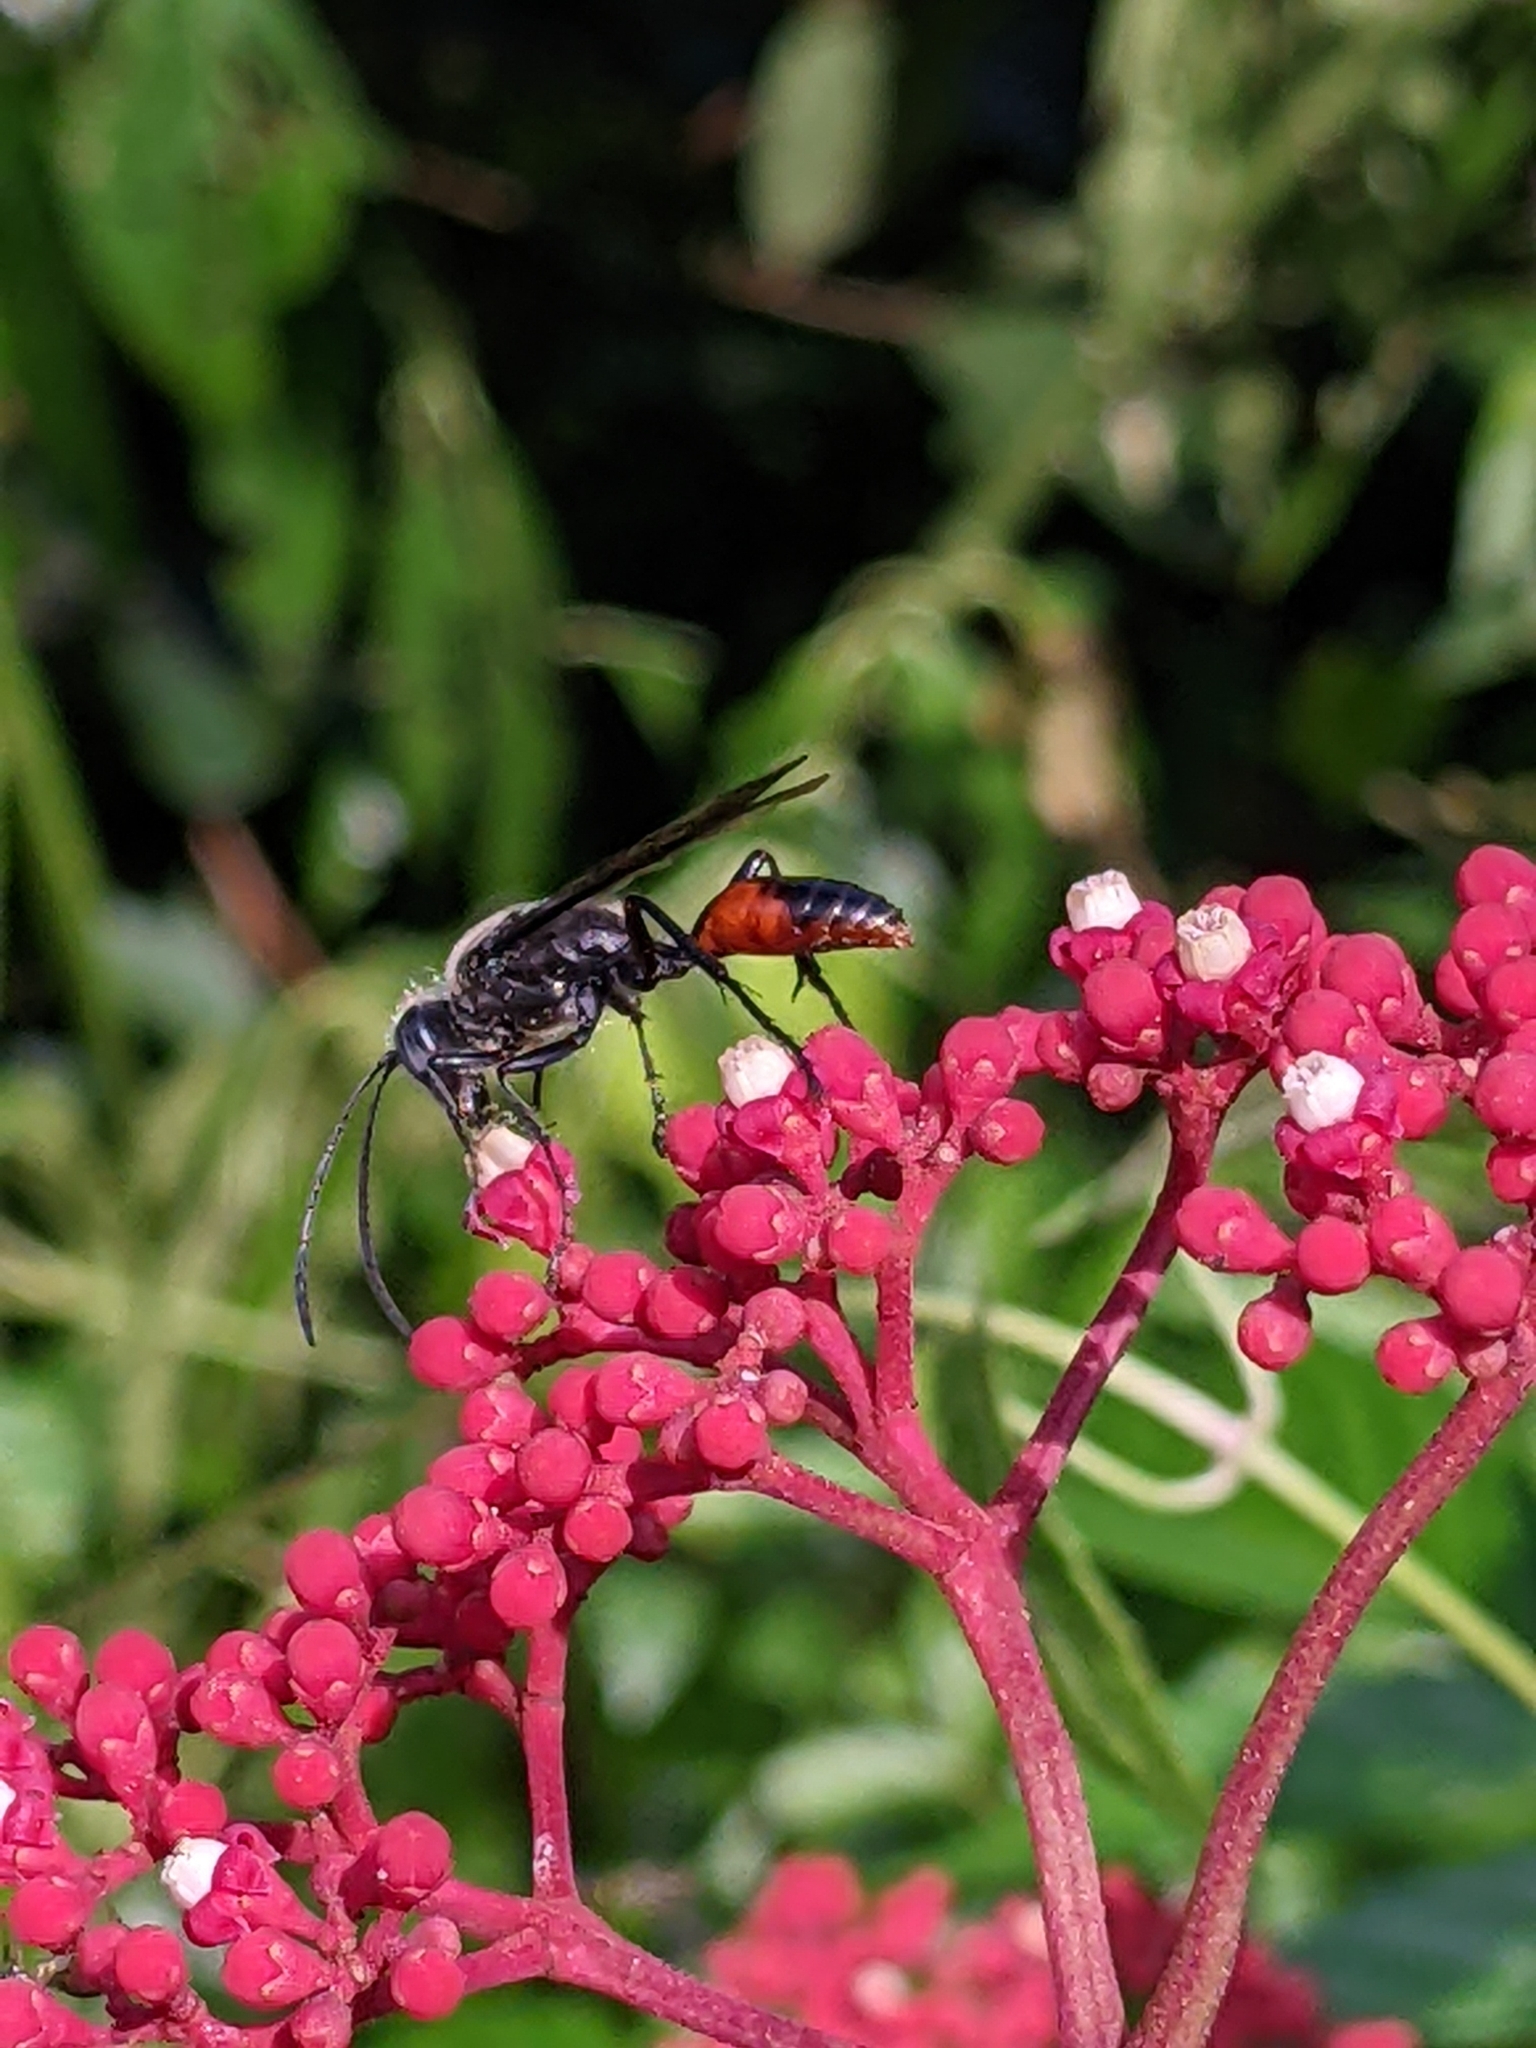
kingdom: Animalia
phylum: Arthropoda
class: Insecta
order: Hymenoptera
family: Sphecidae
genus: Sphex
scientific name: Sphex sericeus
